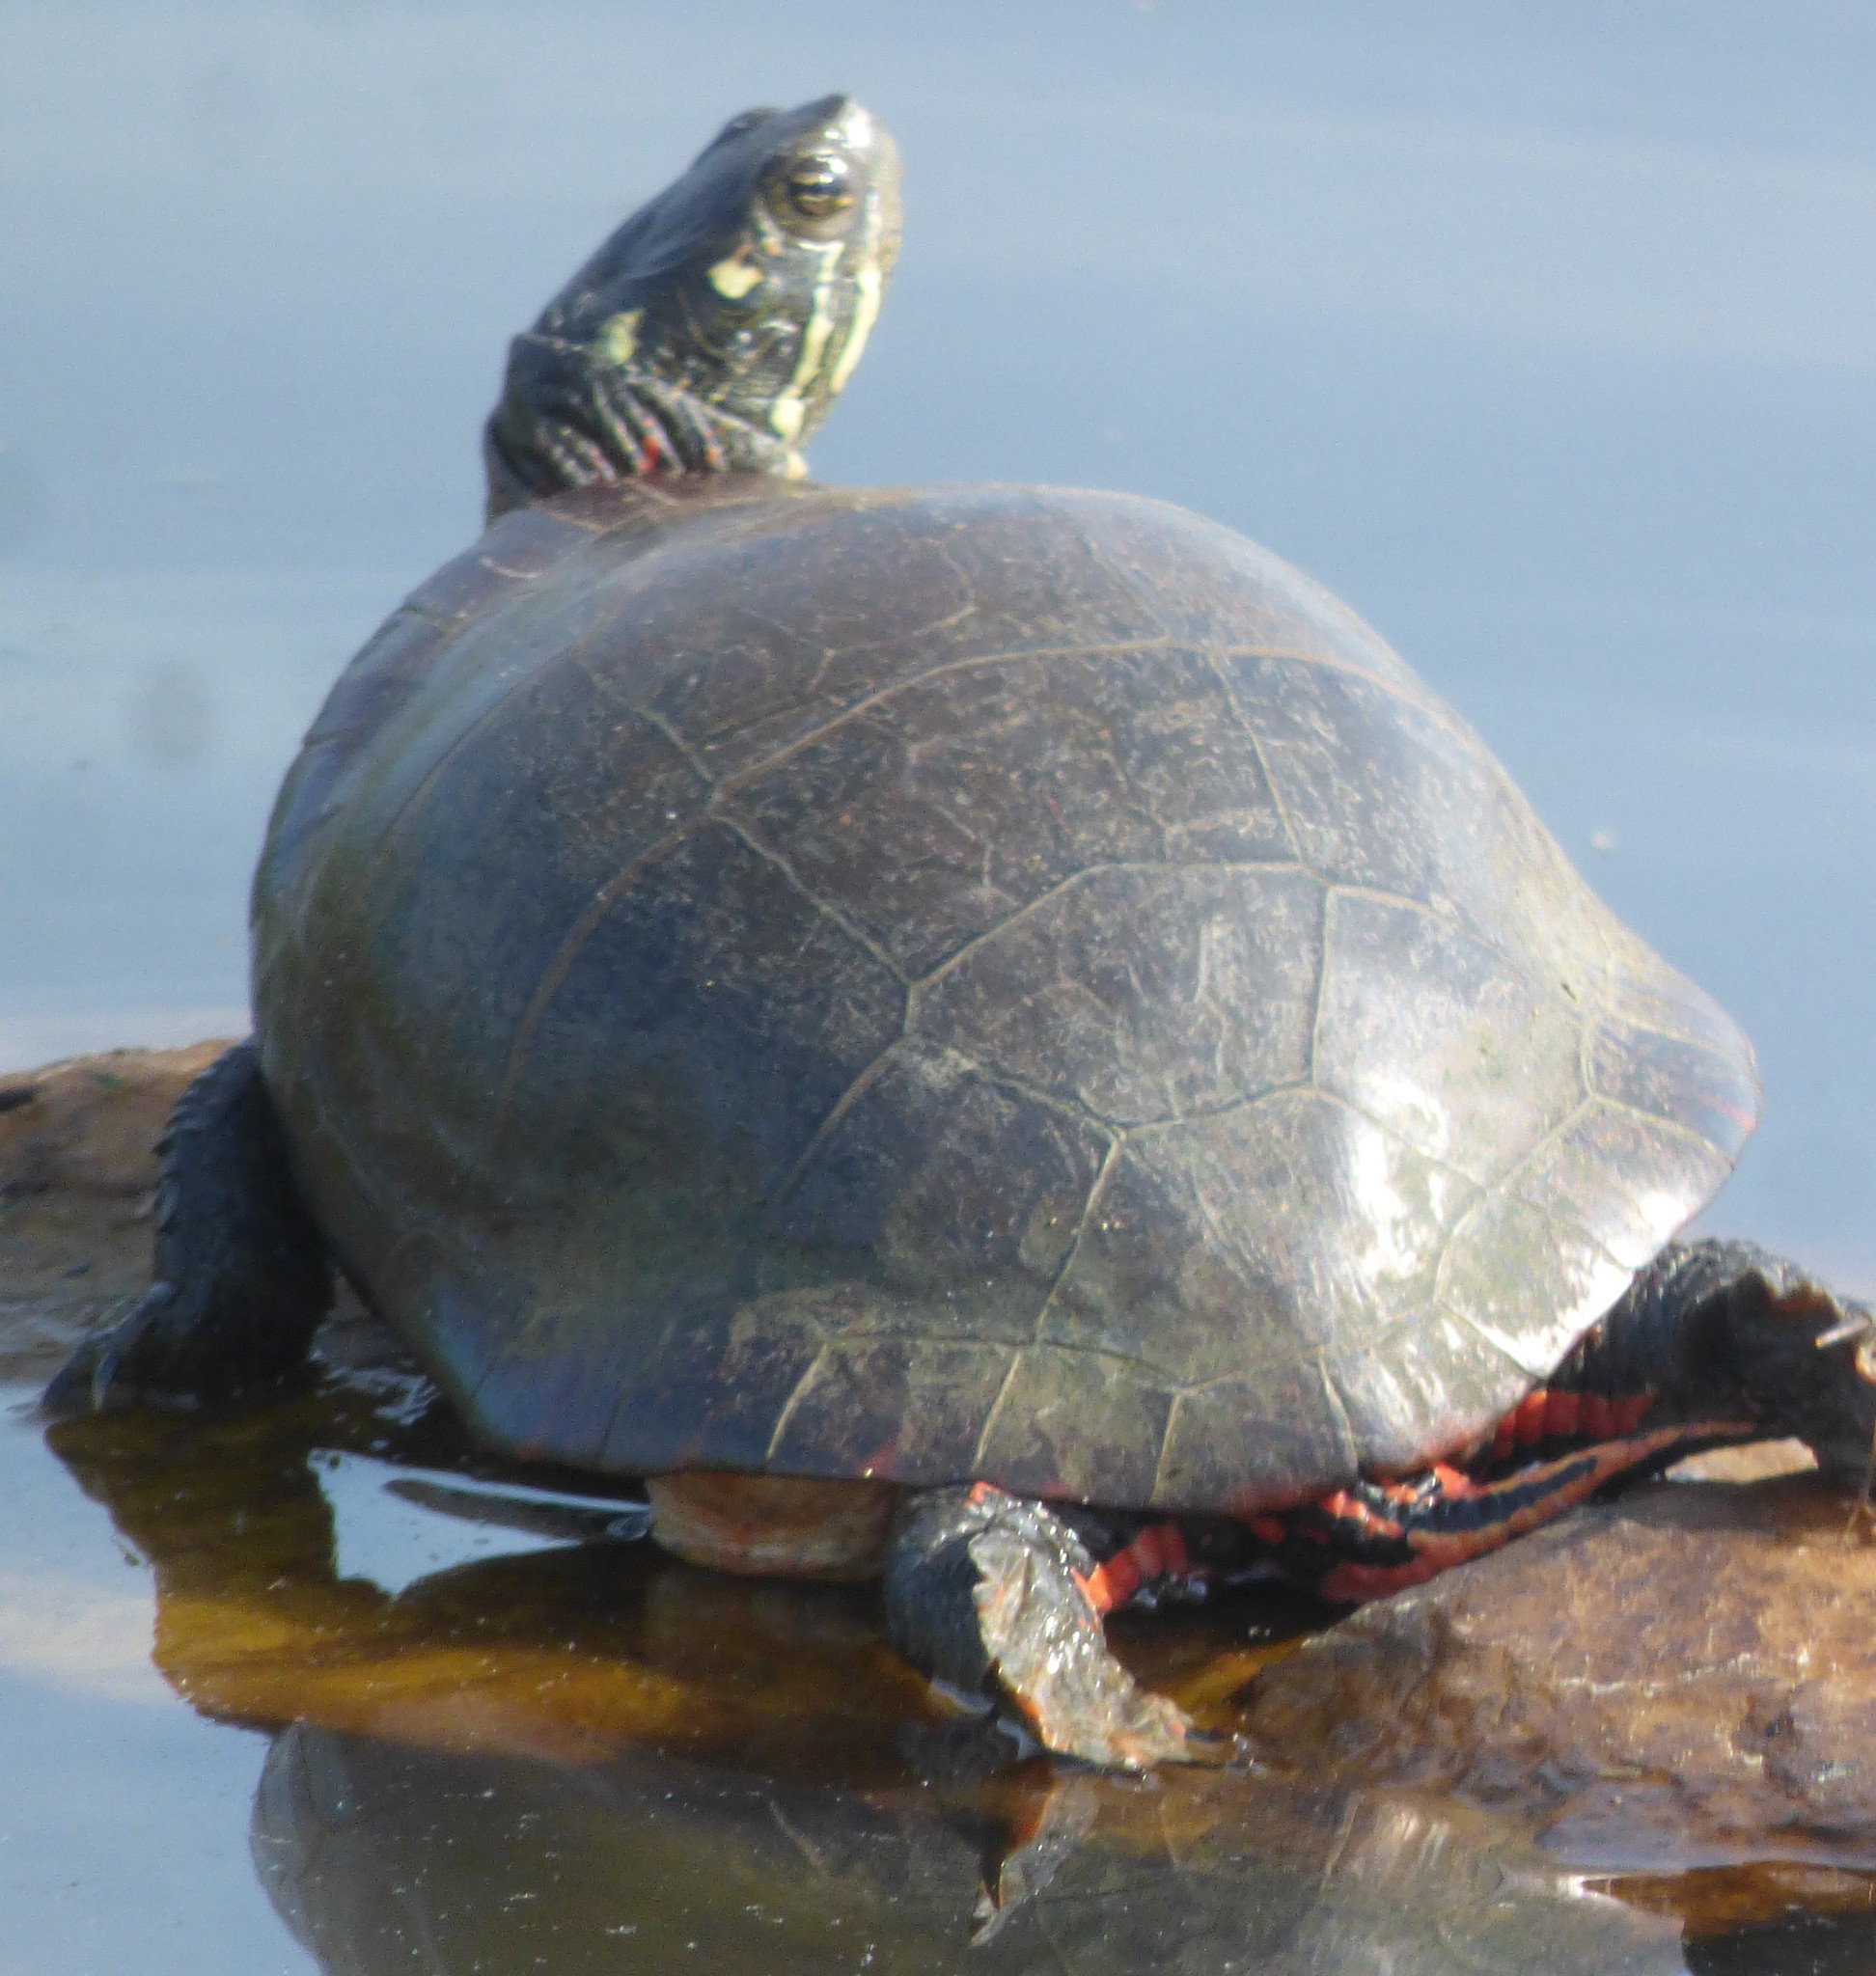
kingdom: Animalia
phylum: Chordata
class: Testudines
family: Emydidae
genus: Chrysemys
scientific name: Chrysemys picta
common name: Painted turtle
